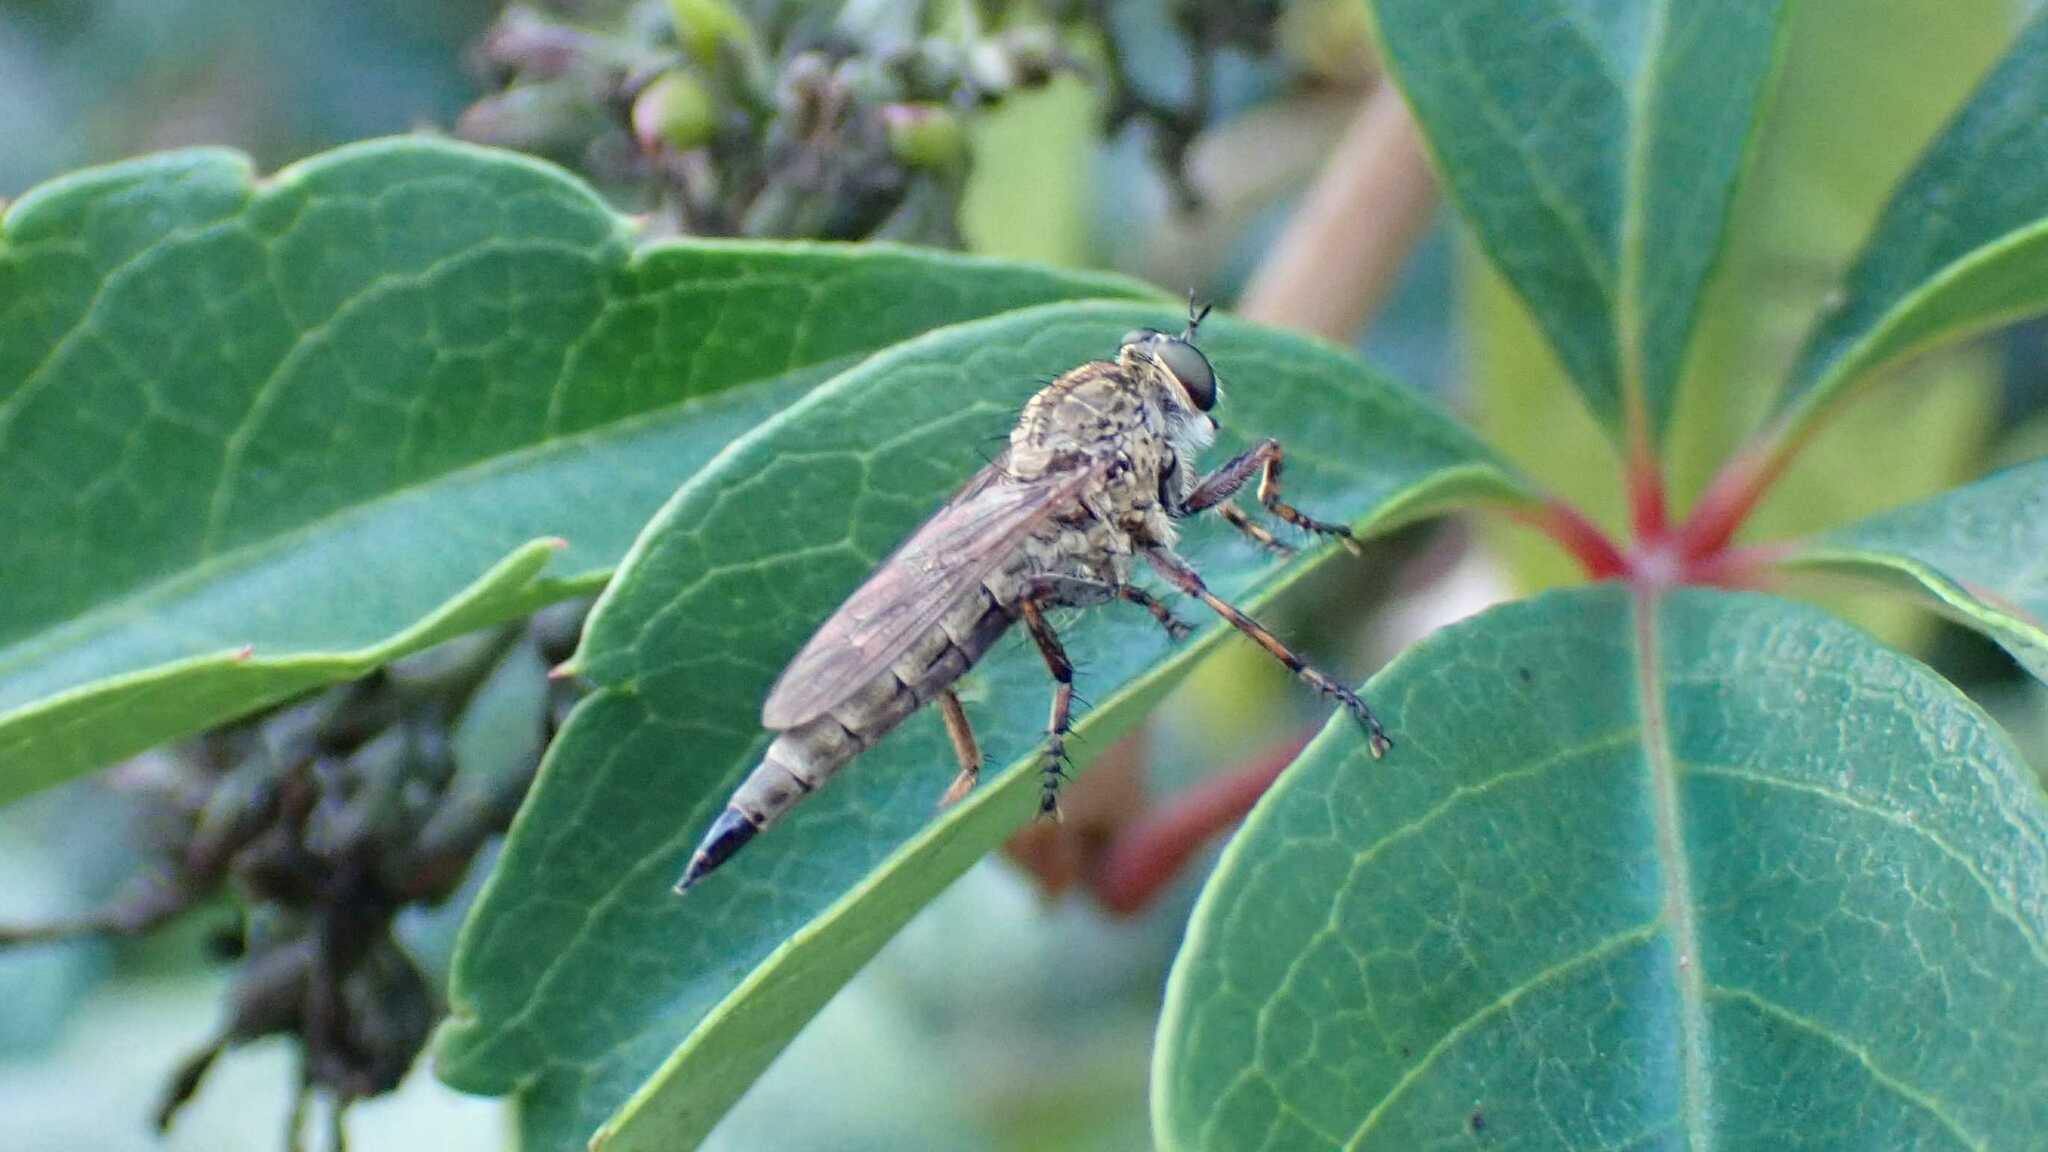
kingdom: Animalia
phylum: Arthropoda
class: Insecta
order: Diptera
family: Asilidae
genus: Epitriptus
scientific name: Epitriptus cingulatus
